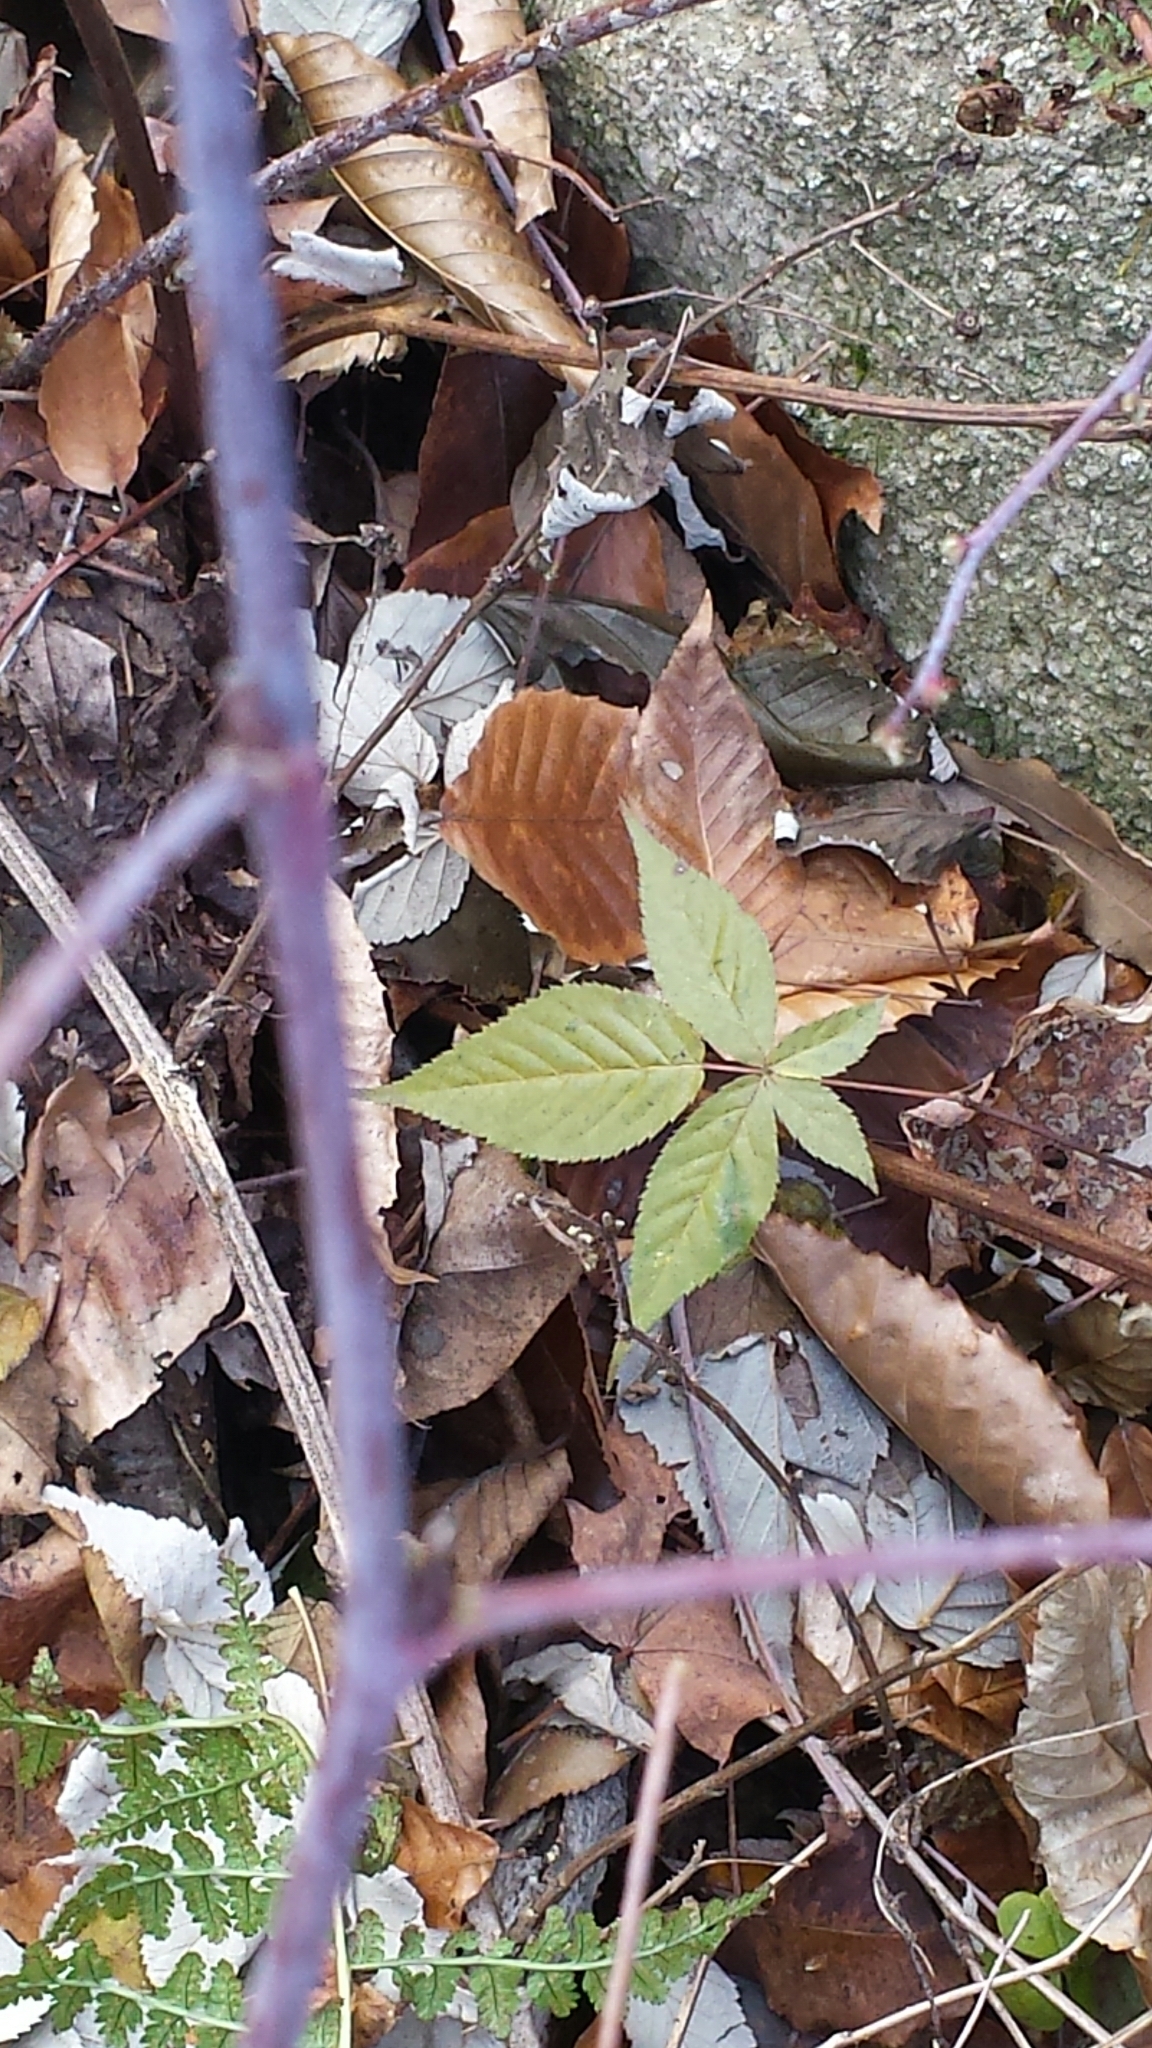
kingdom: Plantae
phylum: Tracheophyta
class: Magnoliopsida
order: Rosales
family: Rosaceae
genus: Rubus
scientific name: Rubus occidentalis
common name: Black raspberry
